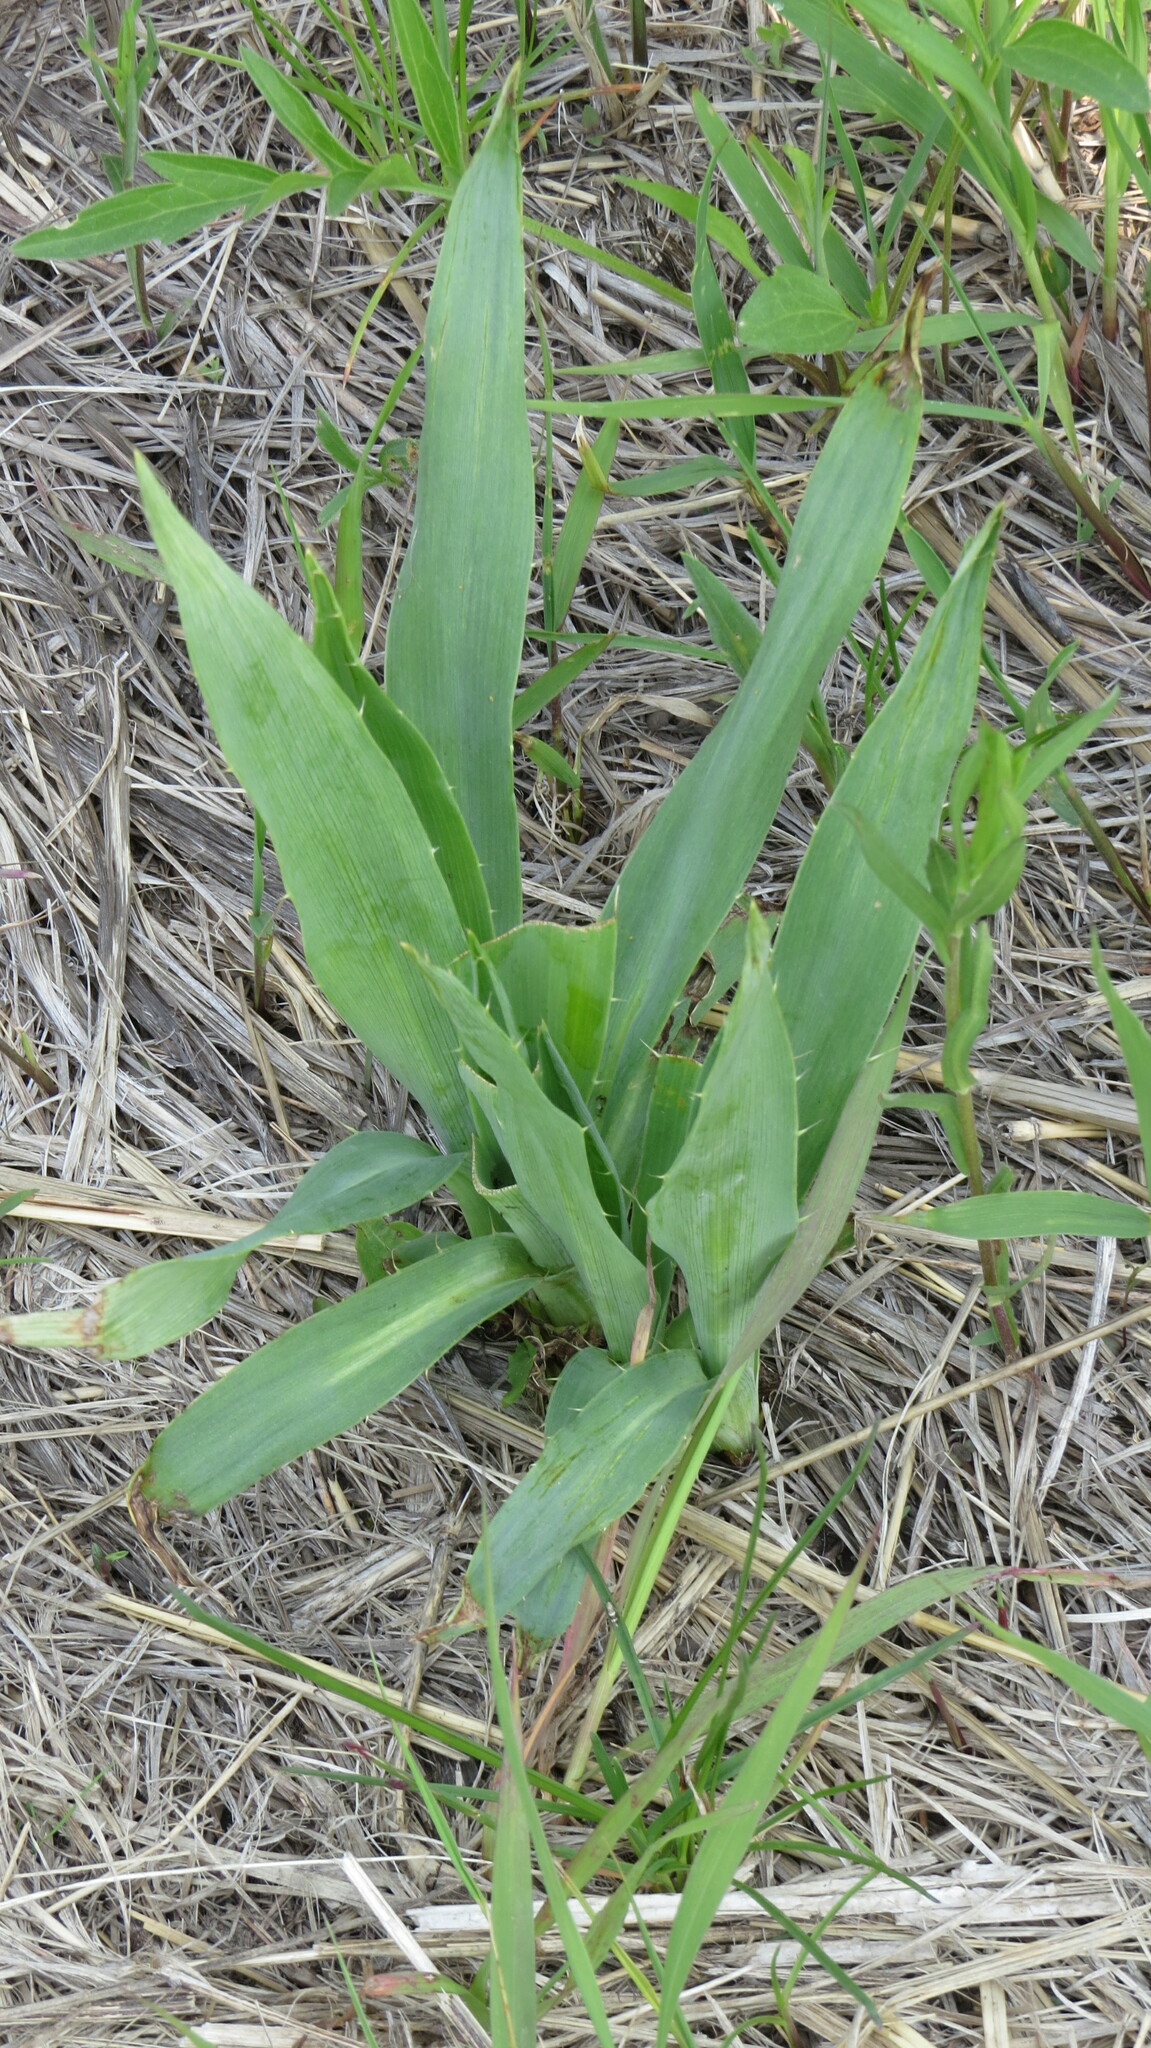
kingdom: Plantae
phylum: Tracheophyta
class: Magnoliopsida
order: Apiales
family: Apiaceae
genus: Eryngium
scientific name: Eryngium yuccifolium
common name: Button eryngo
